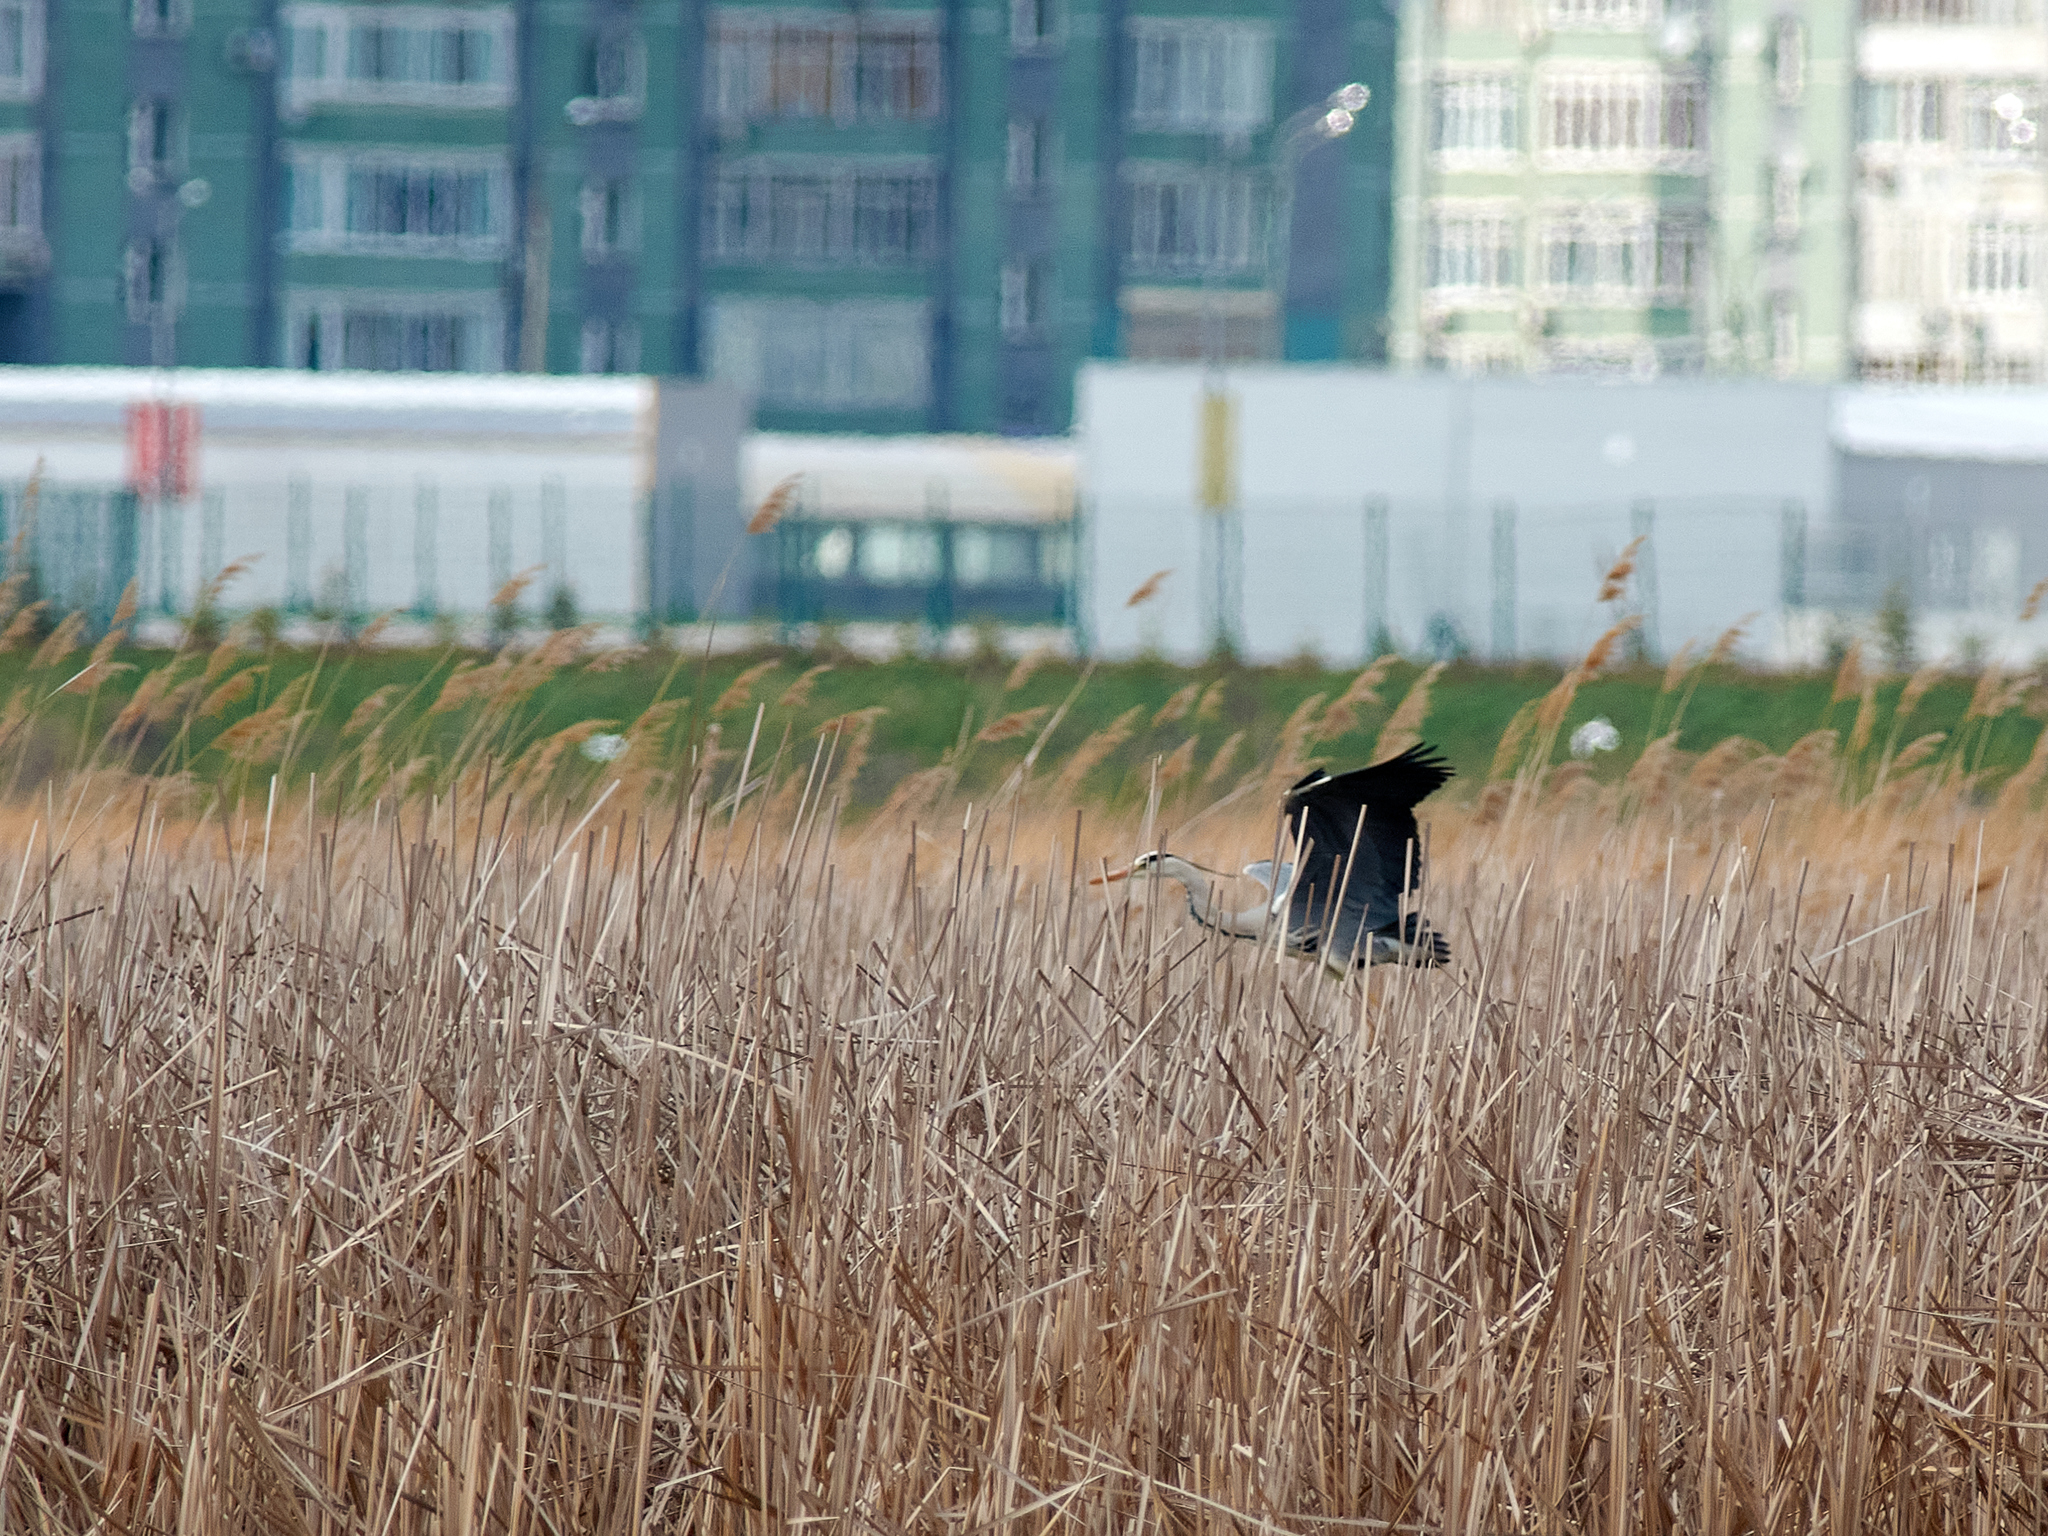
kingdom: Animalia
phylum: Chordata
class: Aves
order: Pelecaniformes
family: Ardeidae
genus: Ardea
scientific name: Ardea cinerea
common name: Grey heron
